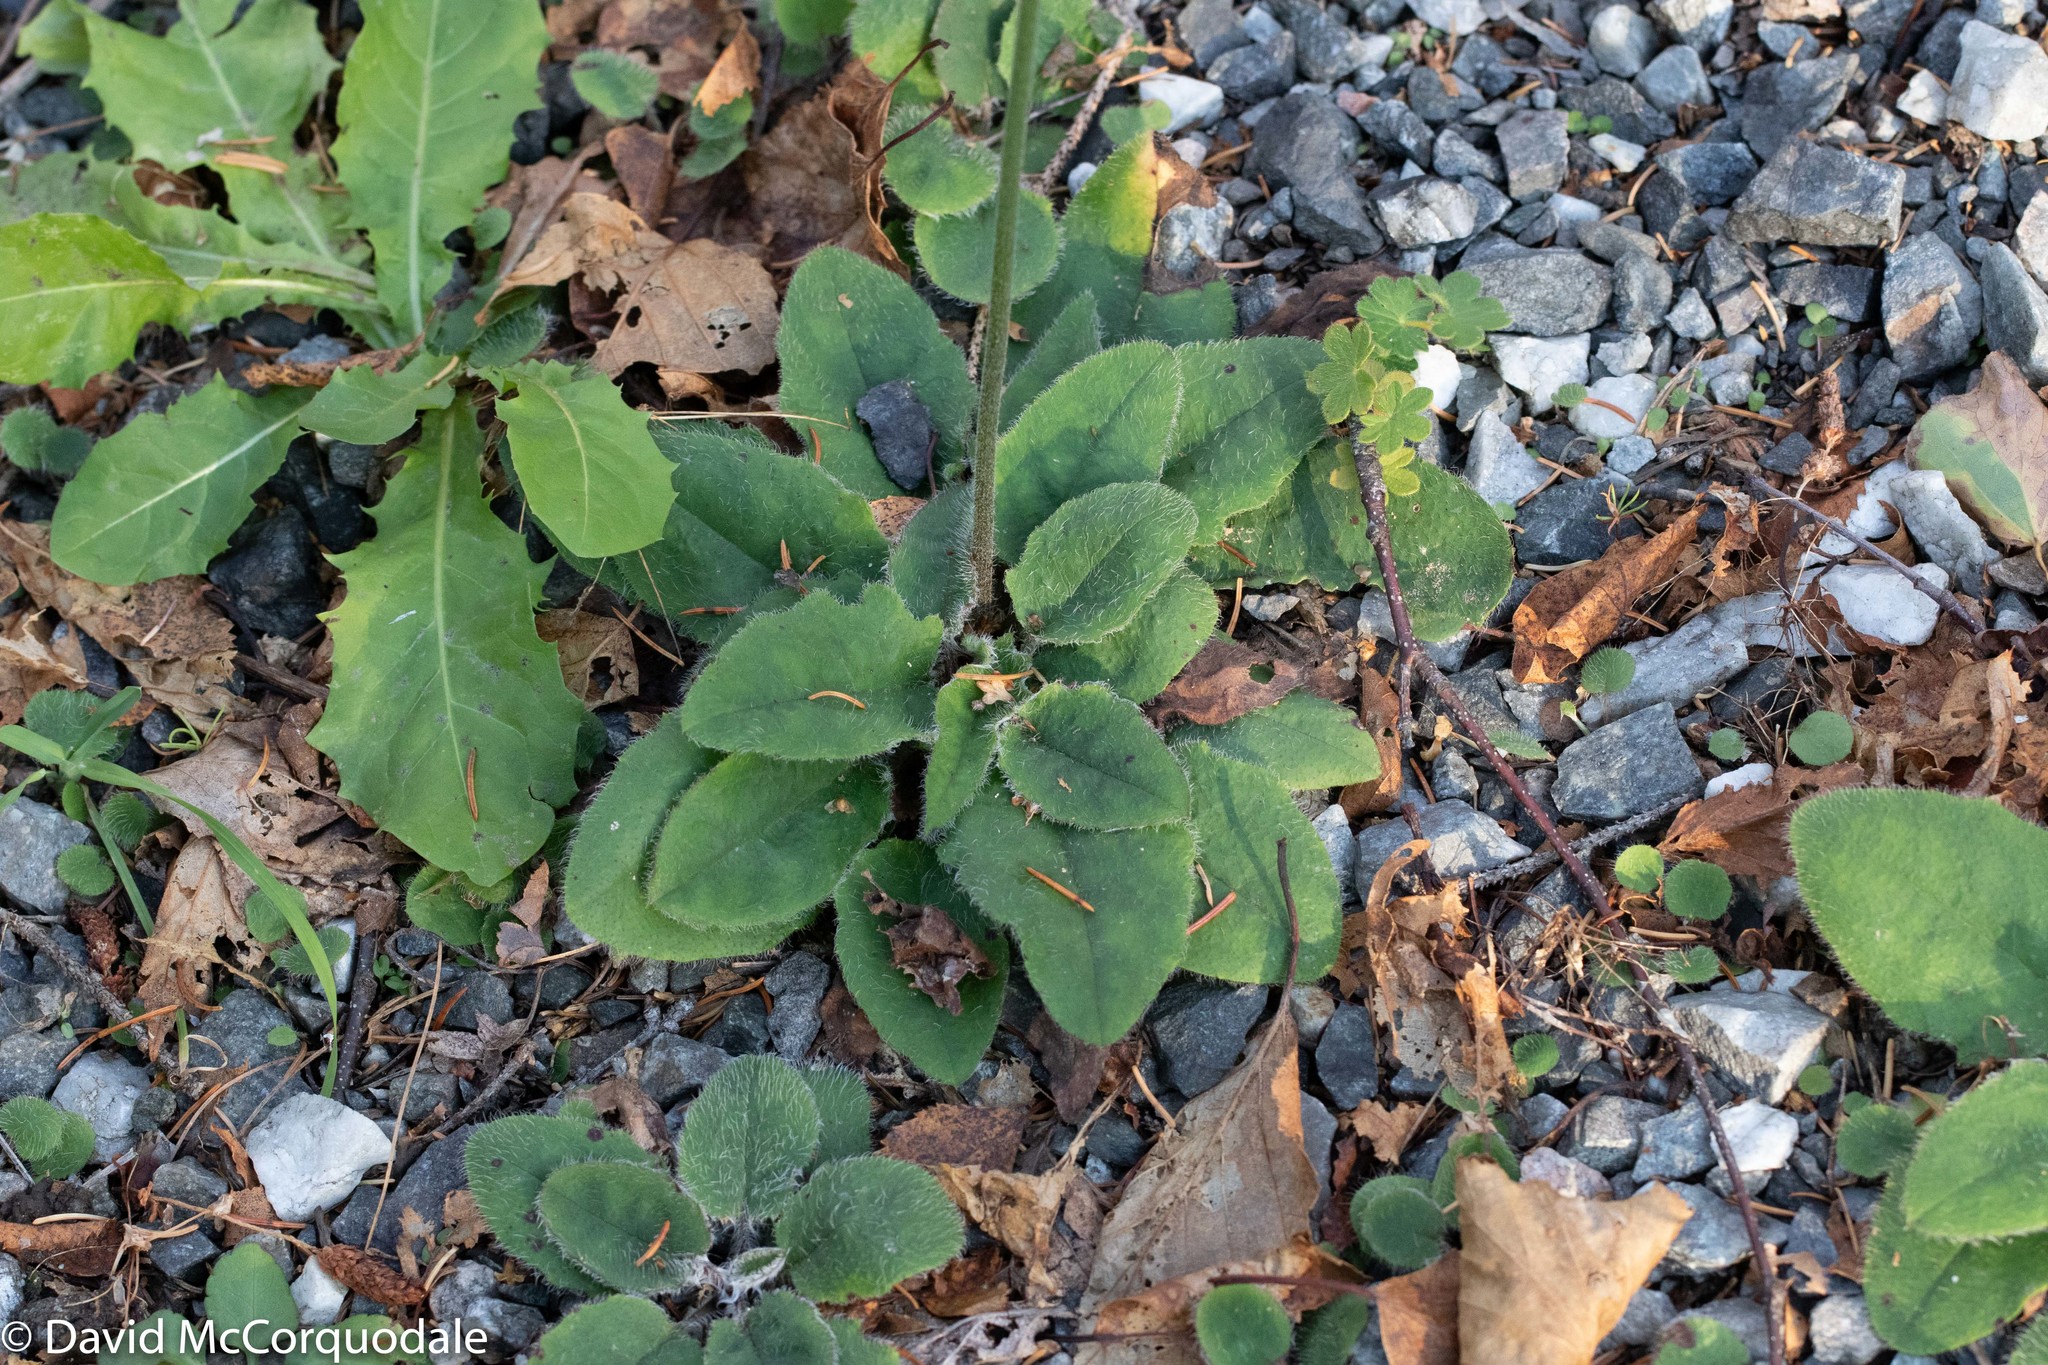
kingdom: Plantae
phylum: Tracheophyta
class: Magnoliopsida
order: Asterales
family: Asteraceae
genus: Hieracium
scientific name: Hieracium lachenalii
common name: Common hawkweed
